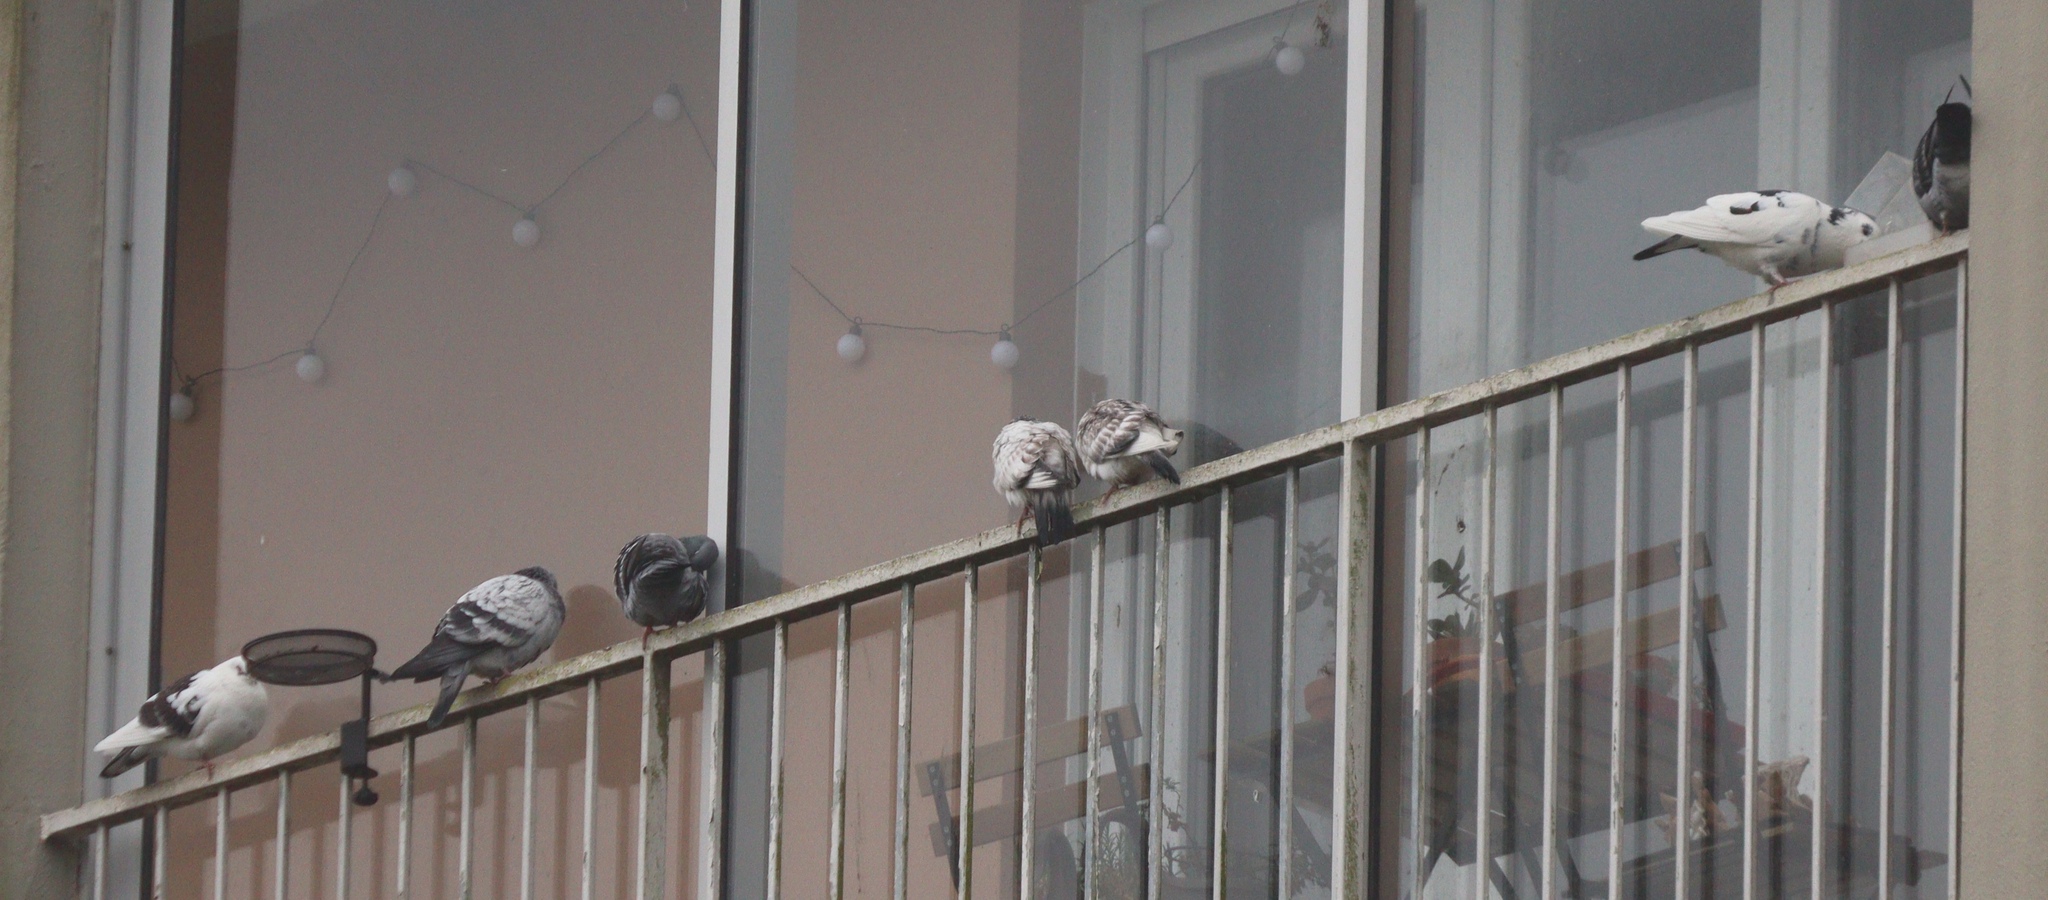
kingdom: Animalia
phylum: Chordata
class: Aves
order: Columbiformes
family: Columbidae
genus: Columba
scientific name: Columba livia
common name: Rock pigeon
